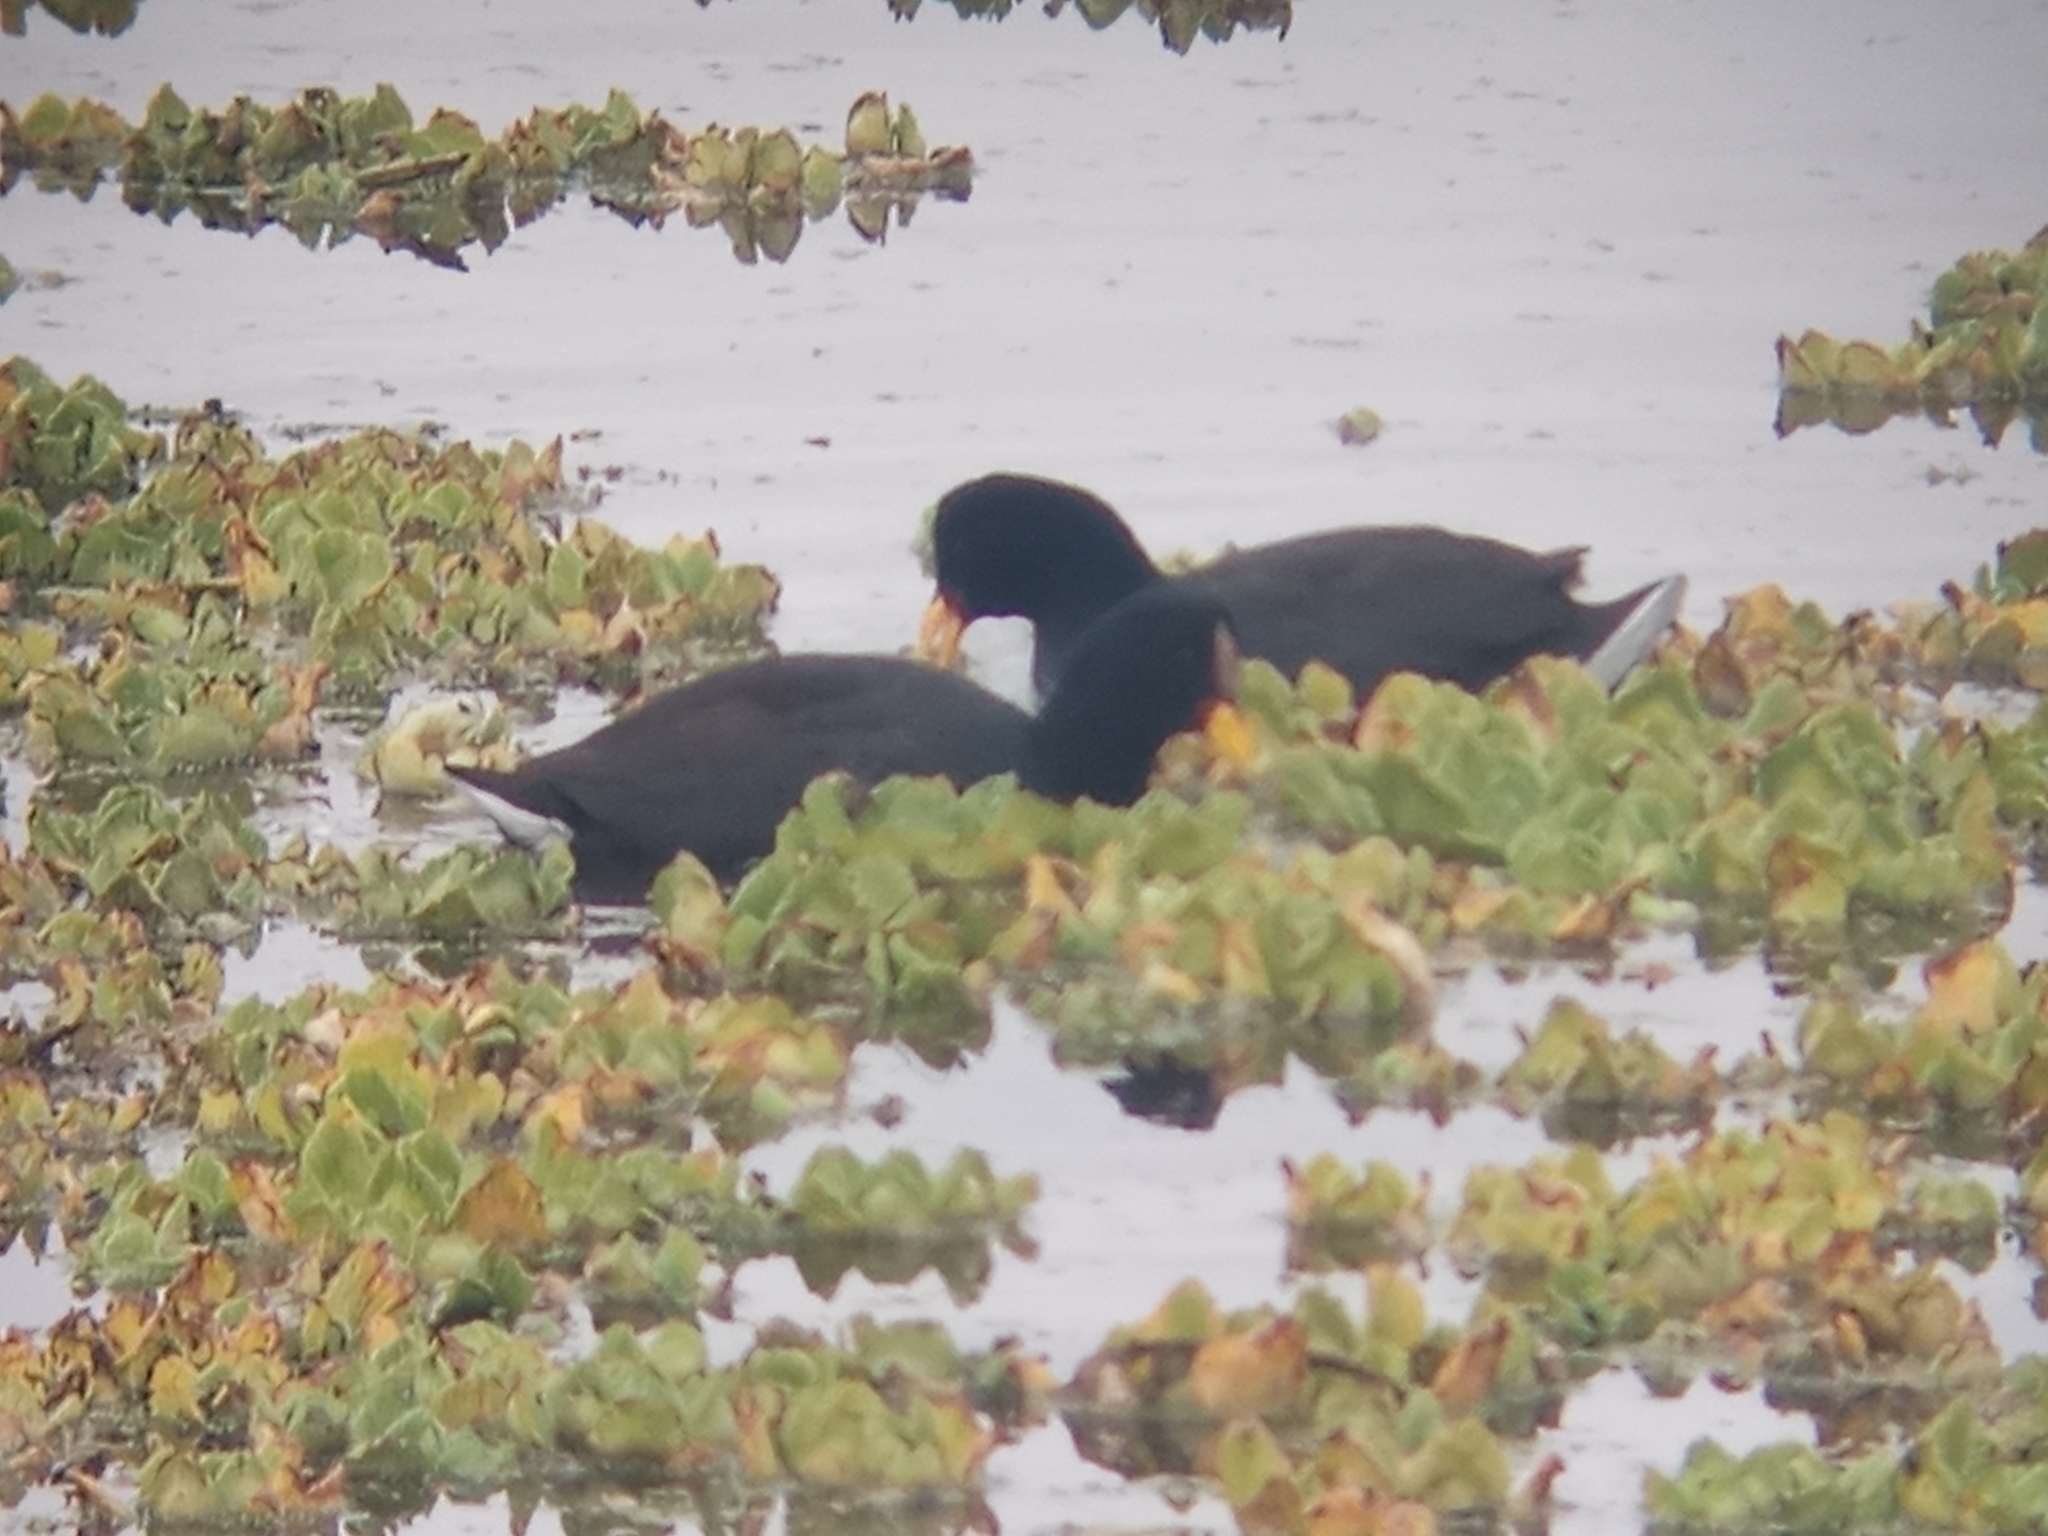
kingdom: Animalia
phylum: Chordata
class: Aves
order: Gruiformes
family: Rallidae
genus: Fulica
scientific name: Fulica rufifrons
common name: Red-fronted coot
